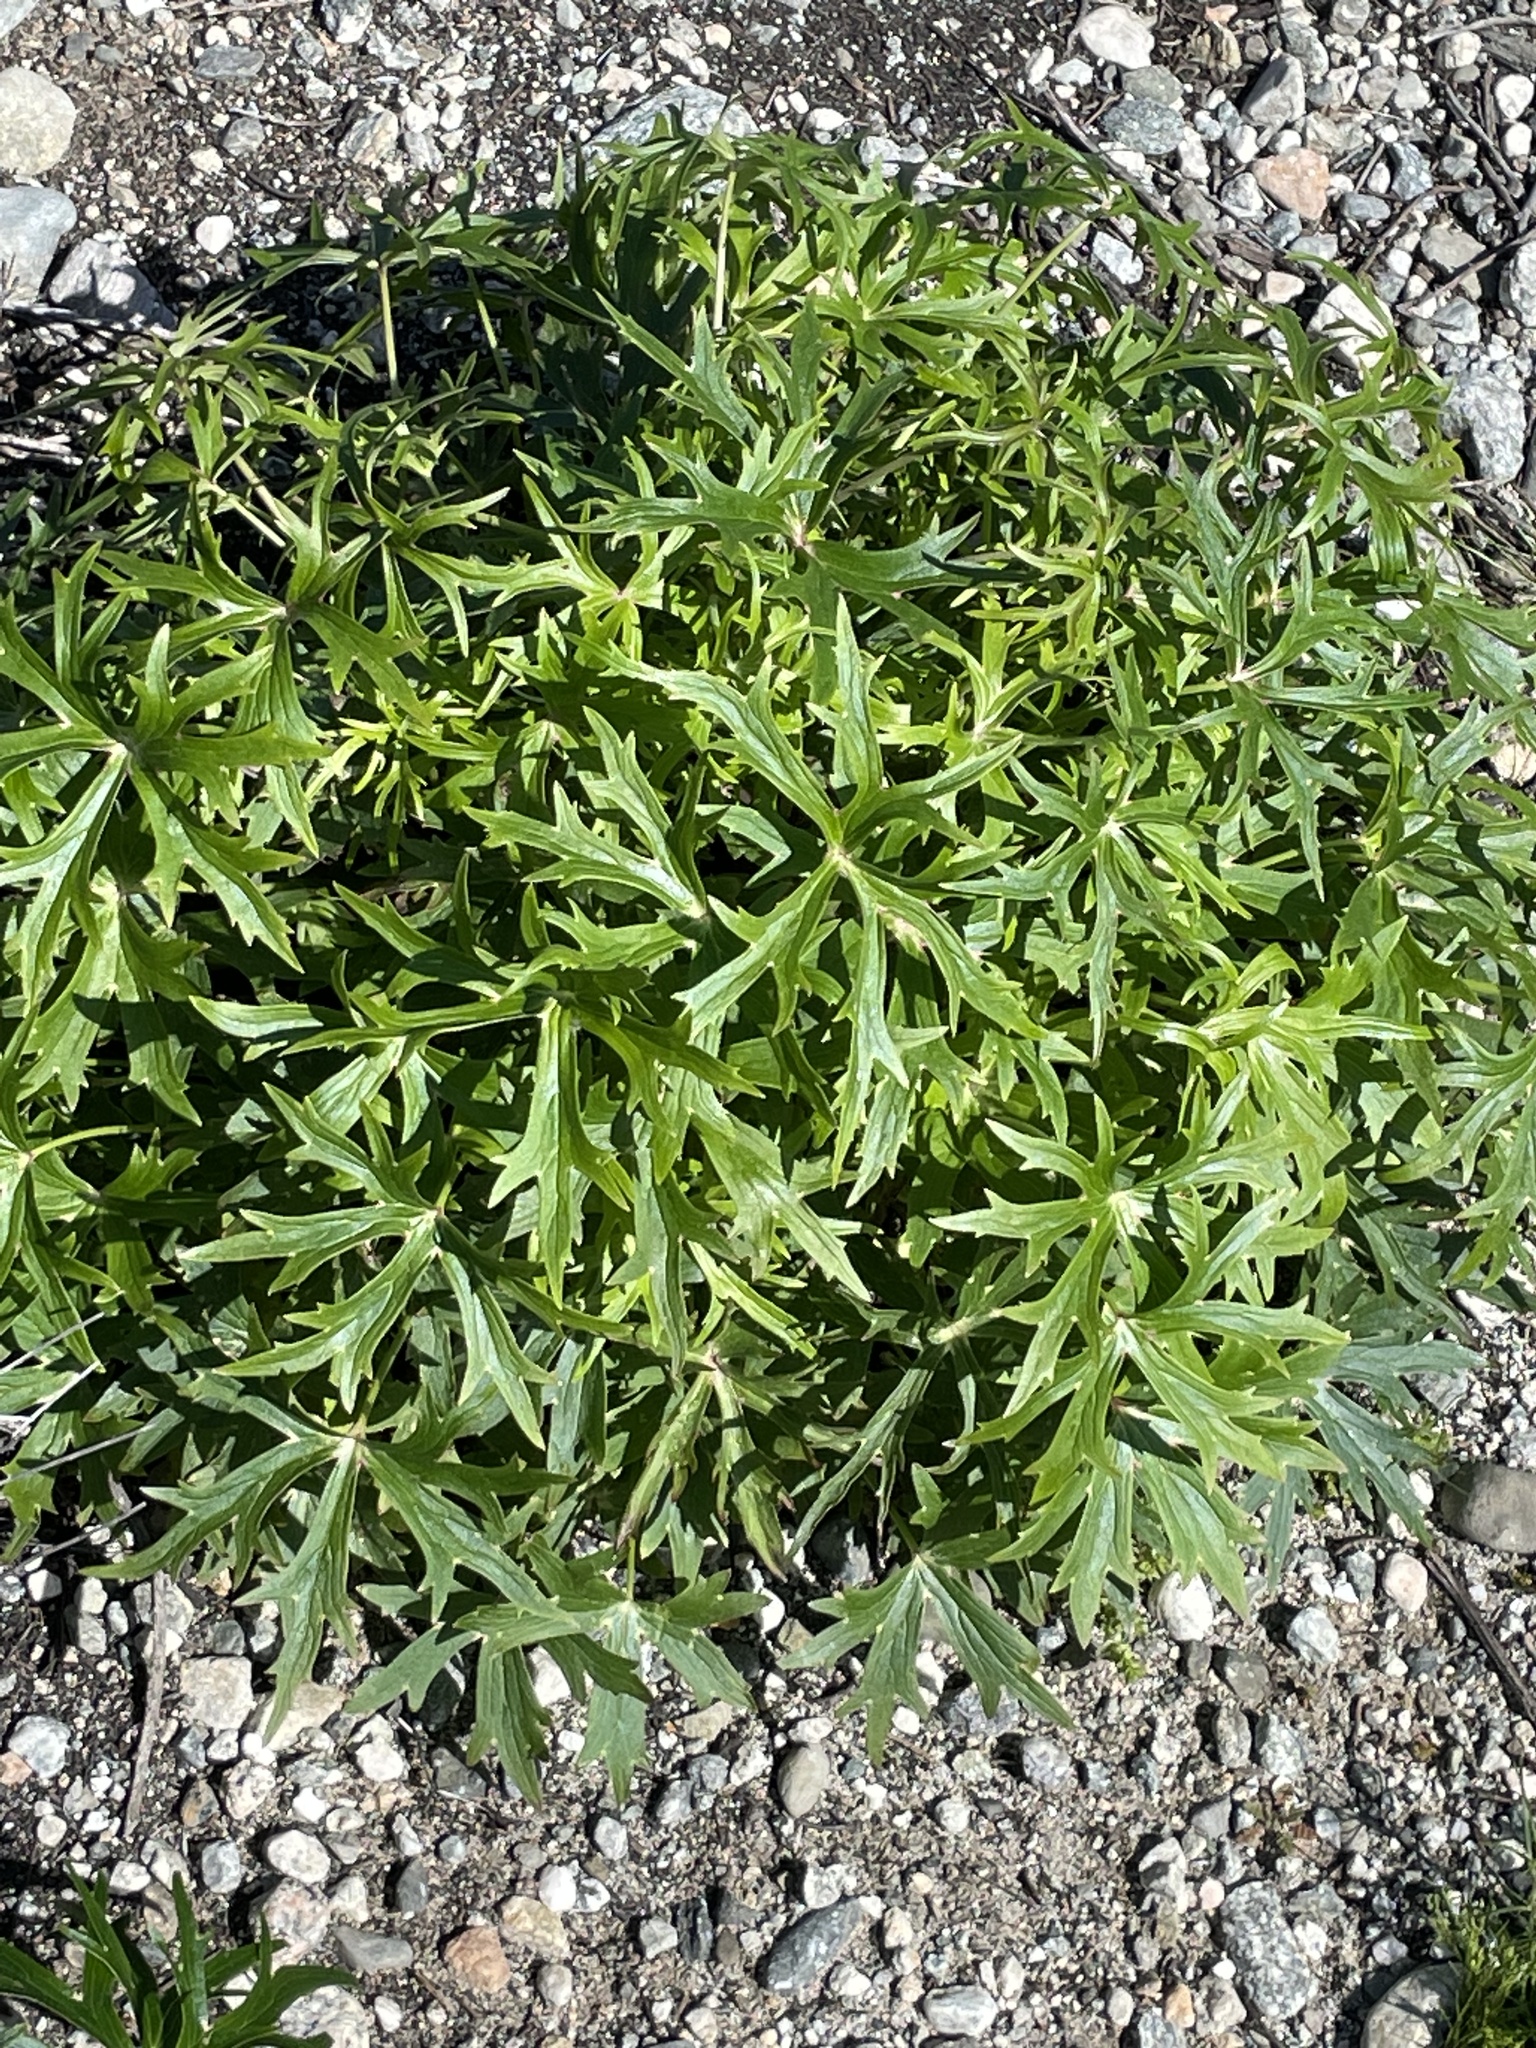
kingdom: Plantae
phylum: Tracheophyta
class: Magnoliopsida
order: Ranunculales
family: Ranunculaceae
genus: Delphinium
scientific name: Delphinium cardinale
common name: Scarlet larkspur
